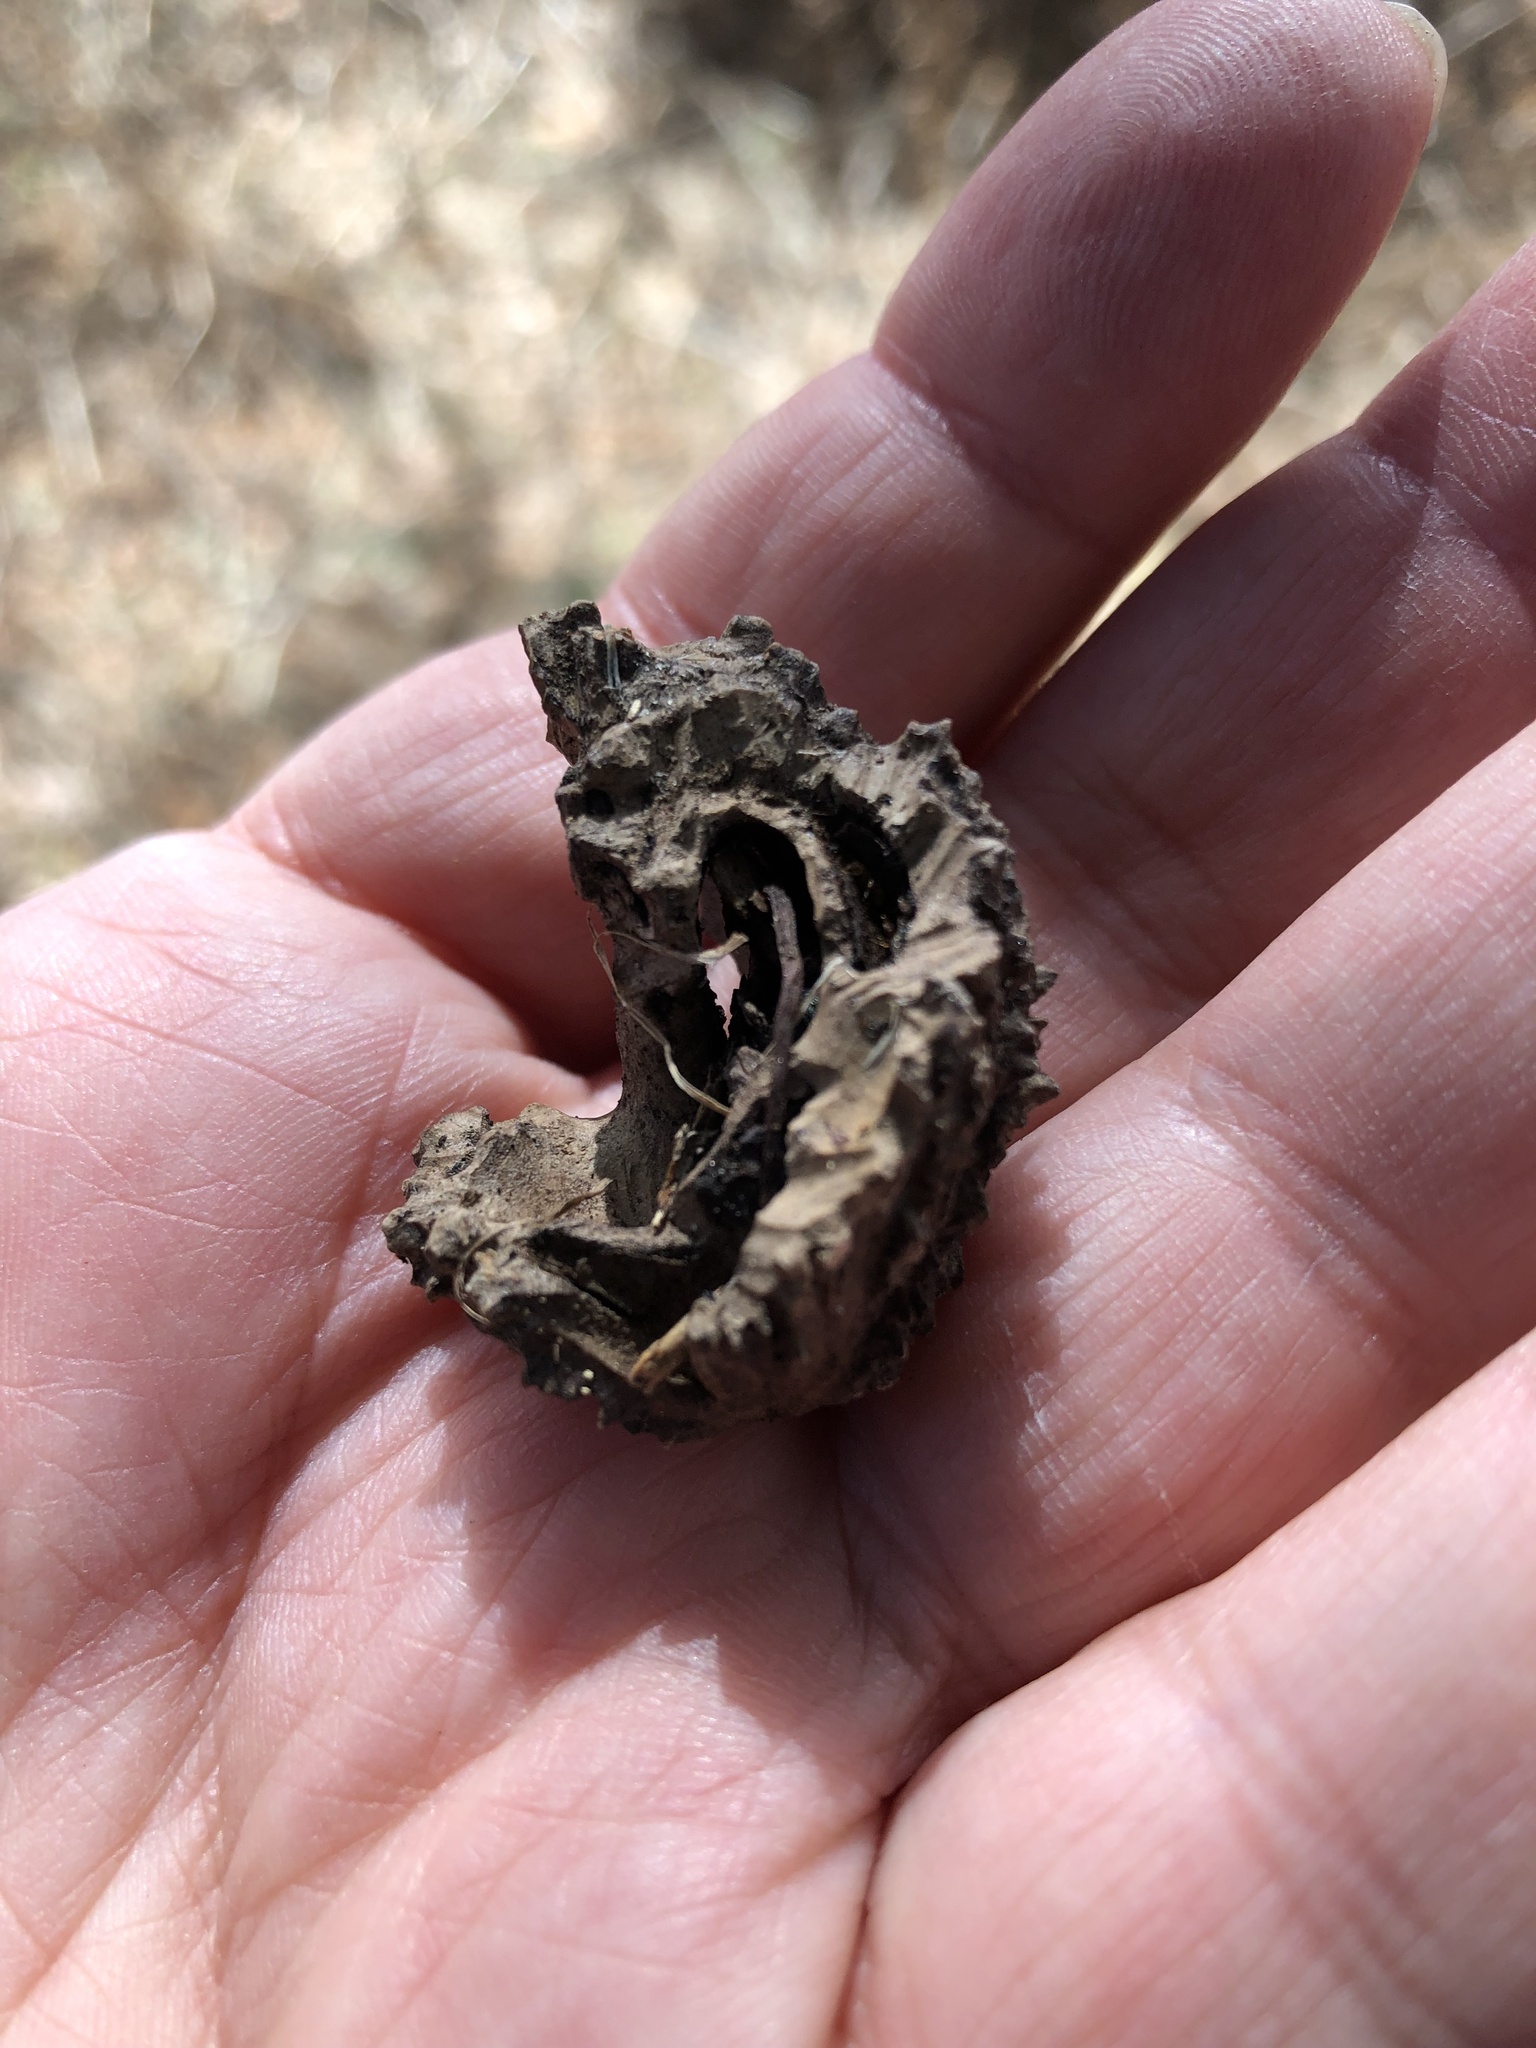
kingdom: Plantae
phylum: Tracheophyta
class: Magnoliopsida
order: Fagales
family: Juglandaceae
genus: Juglans
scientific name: Juglans nigra
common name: Black walnut
